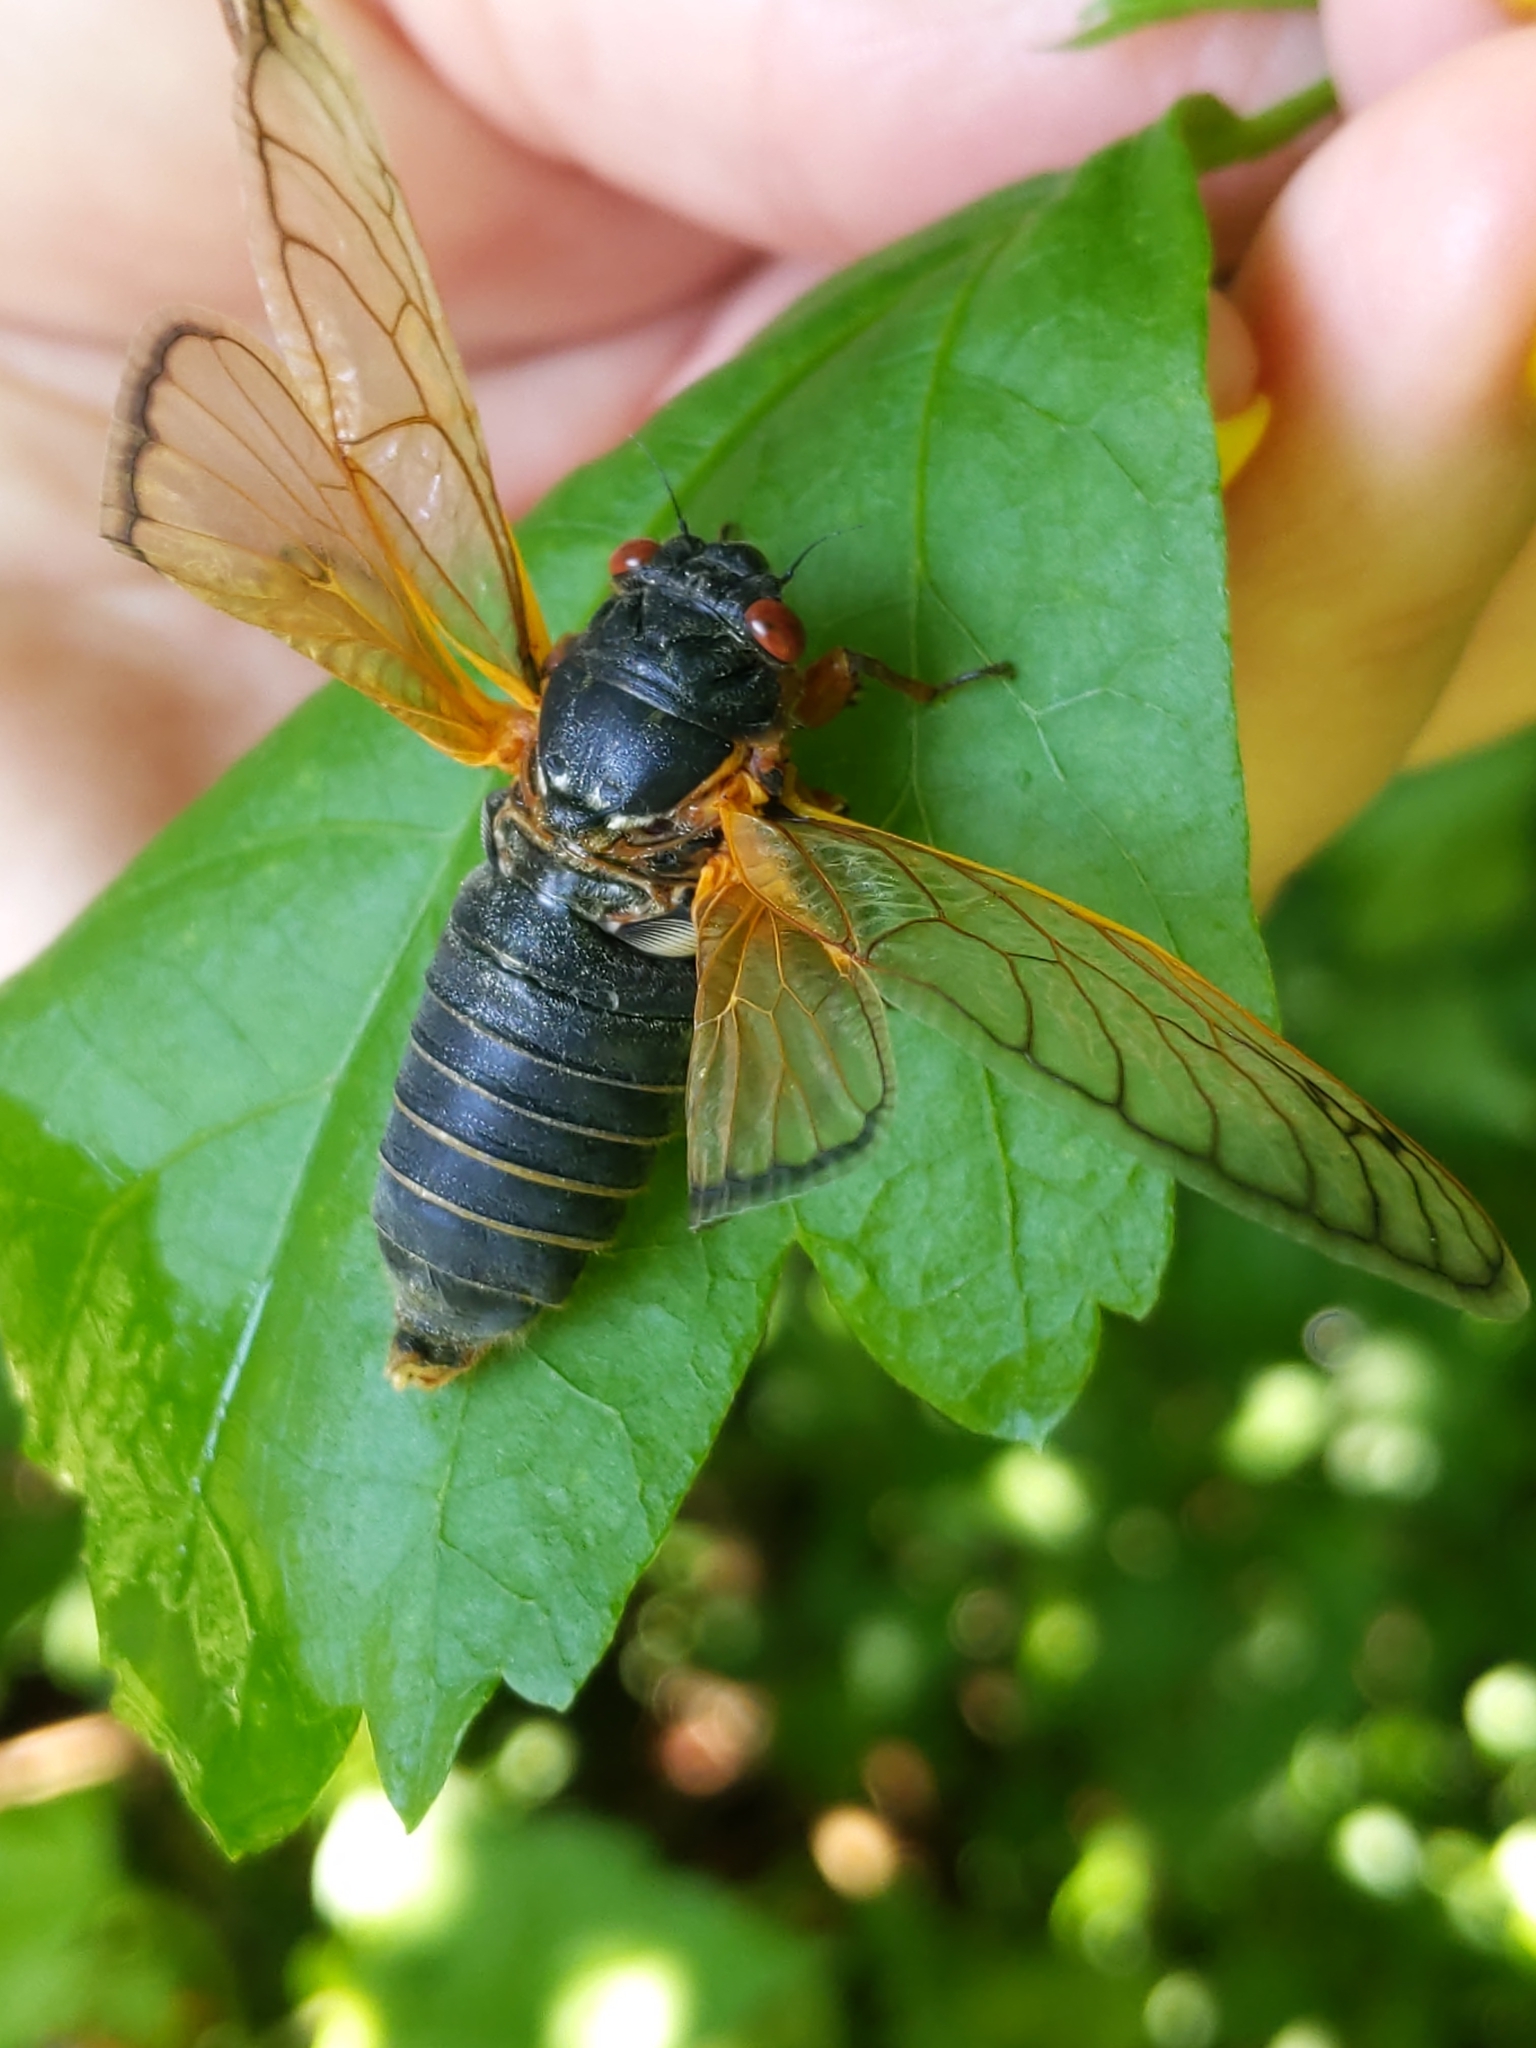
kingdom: Animalia
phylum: Arthropoda
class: Insecta
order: Hemiptera
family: Cicadidae
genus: Magicicada
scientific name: Magicicada septendecim
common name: Periodical cicada
